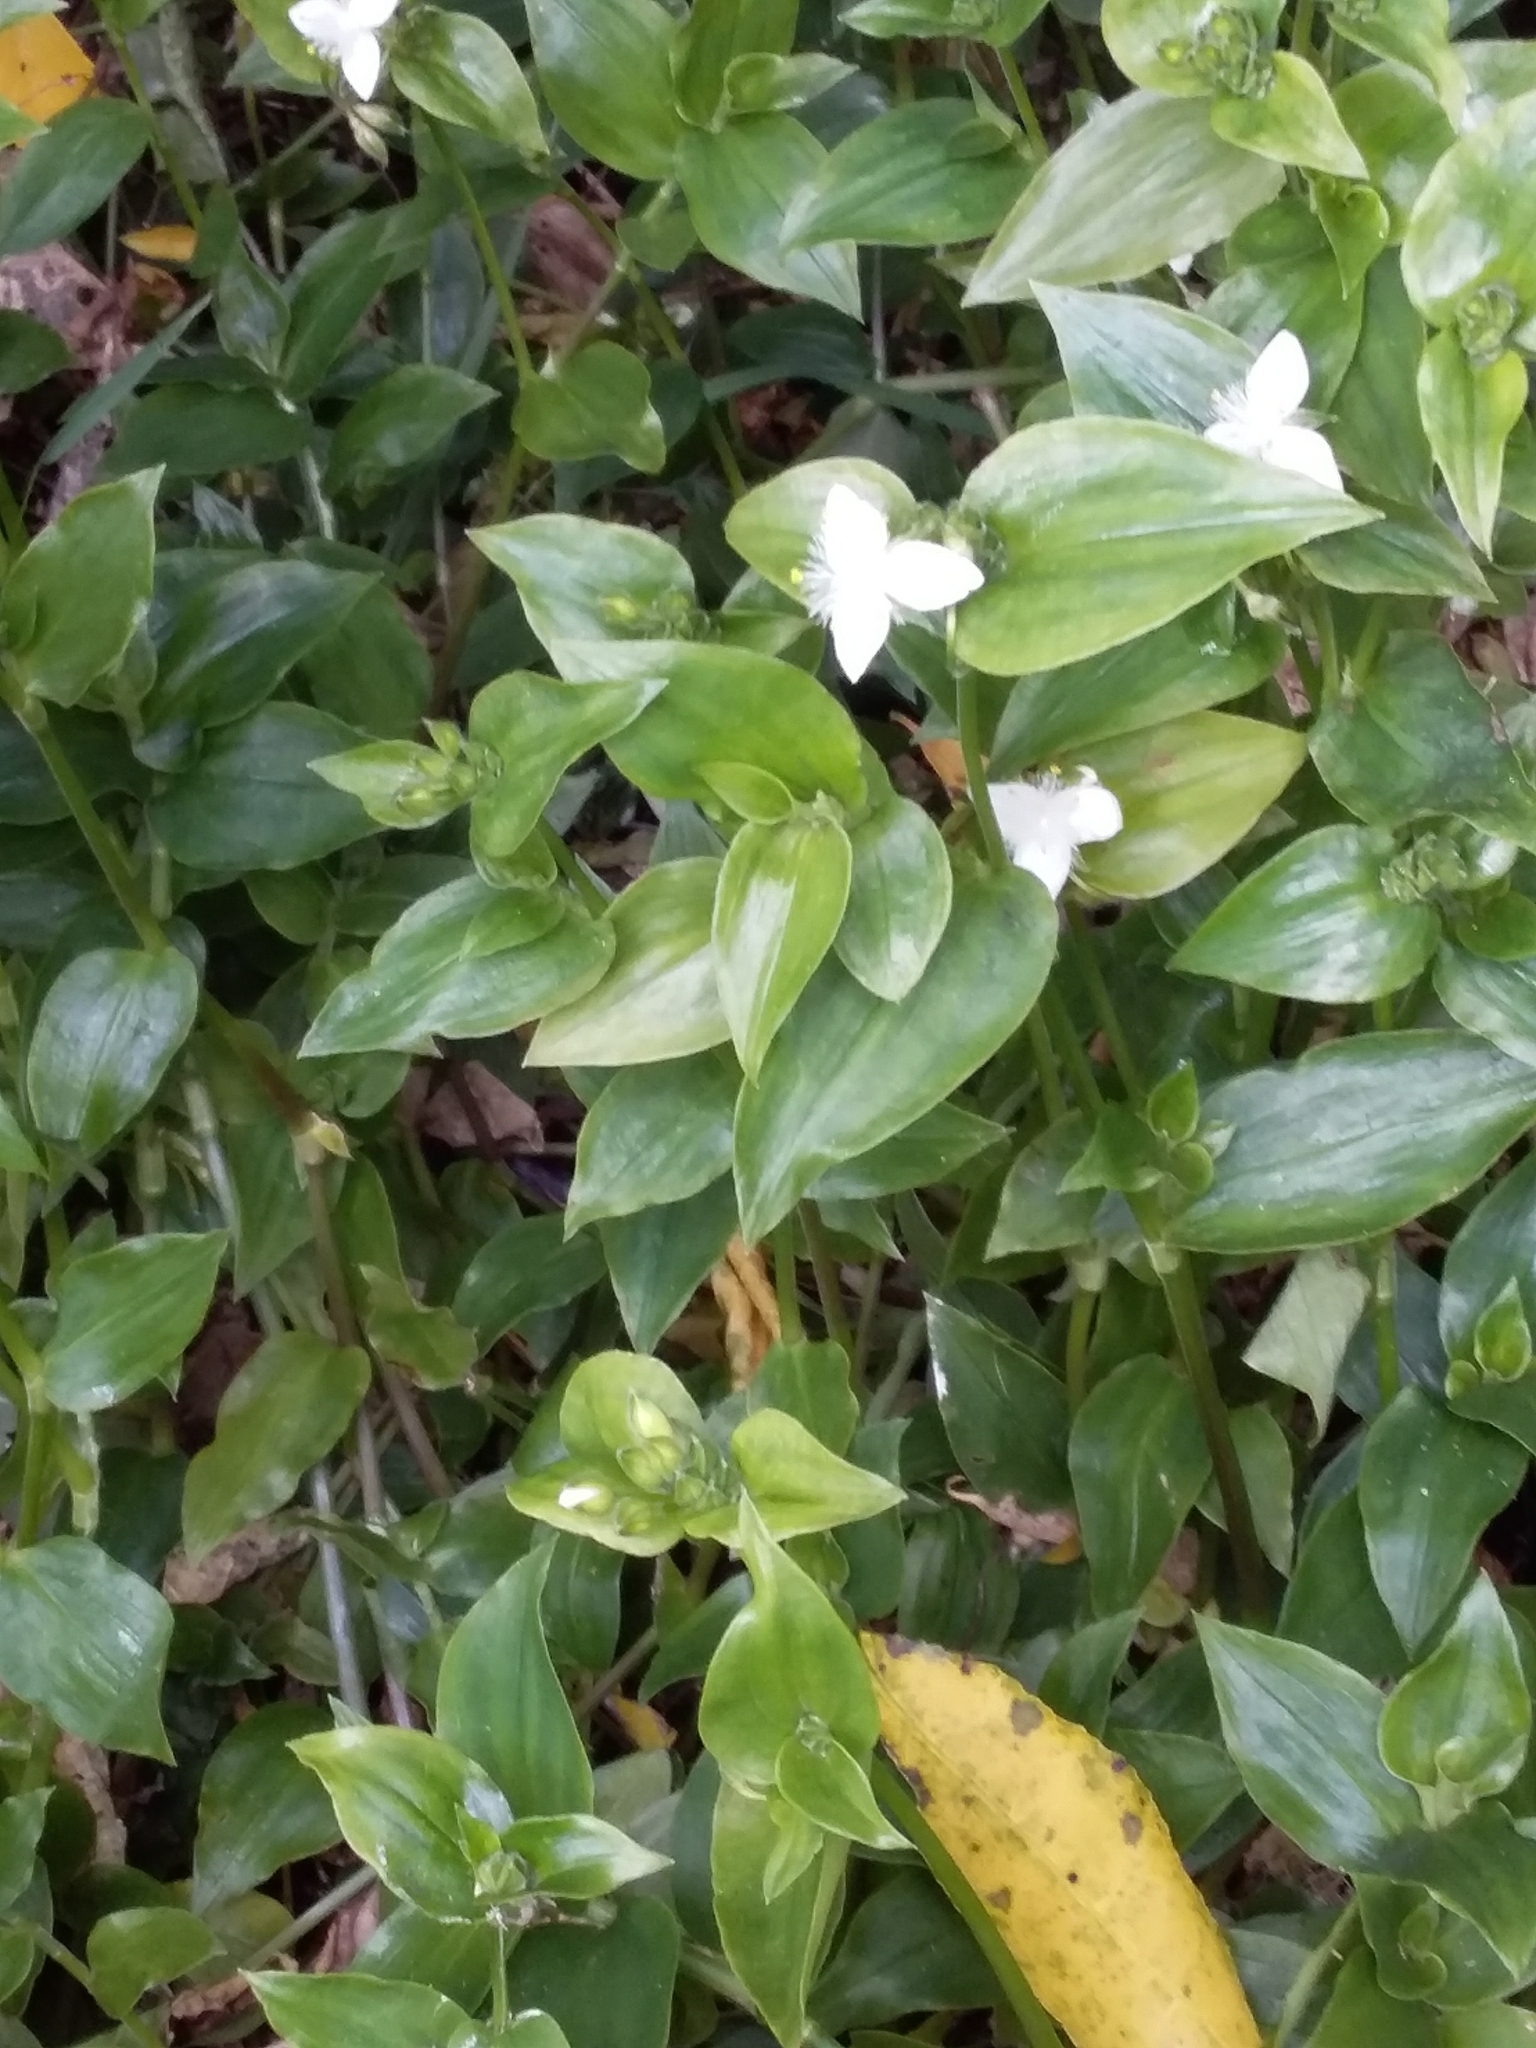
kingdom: Plantae
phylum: Tracheophyta
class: Liliopsida
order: Commelinales
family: Commelinaceae
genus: Tradescantia
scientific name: Tradescantia fluminensis
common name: Wandering-jew
